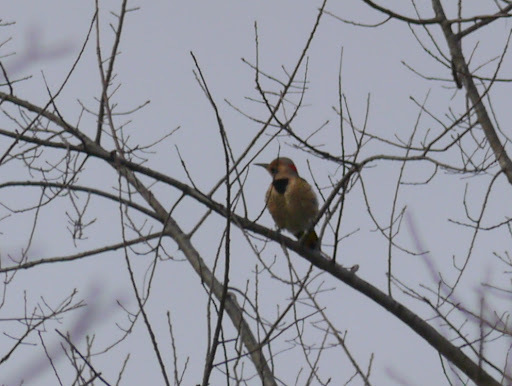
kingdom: Animalia
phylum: Chordata
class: Aves
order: Piciformes
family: Picidae
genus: Colaptes
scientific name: Colaptes auratus
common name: Northern flicker
